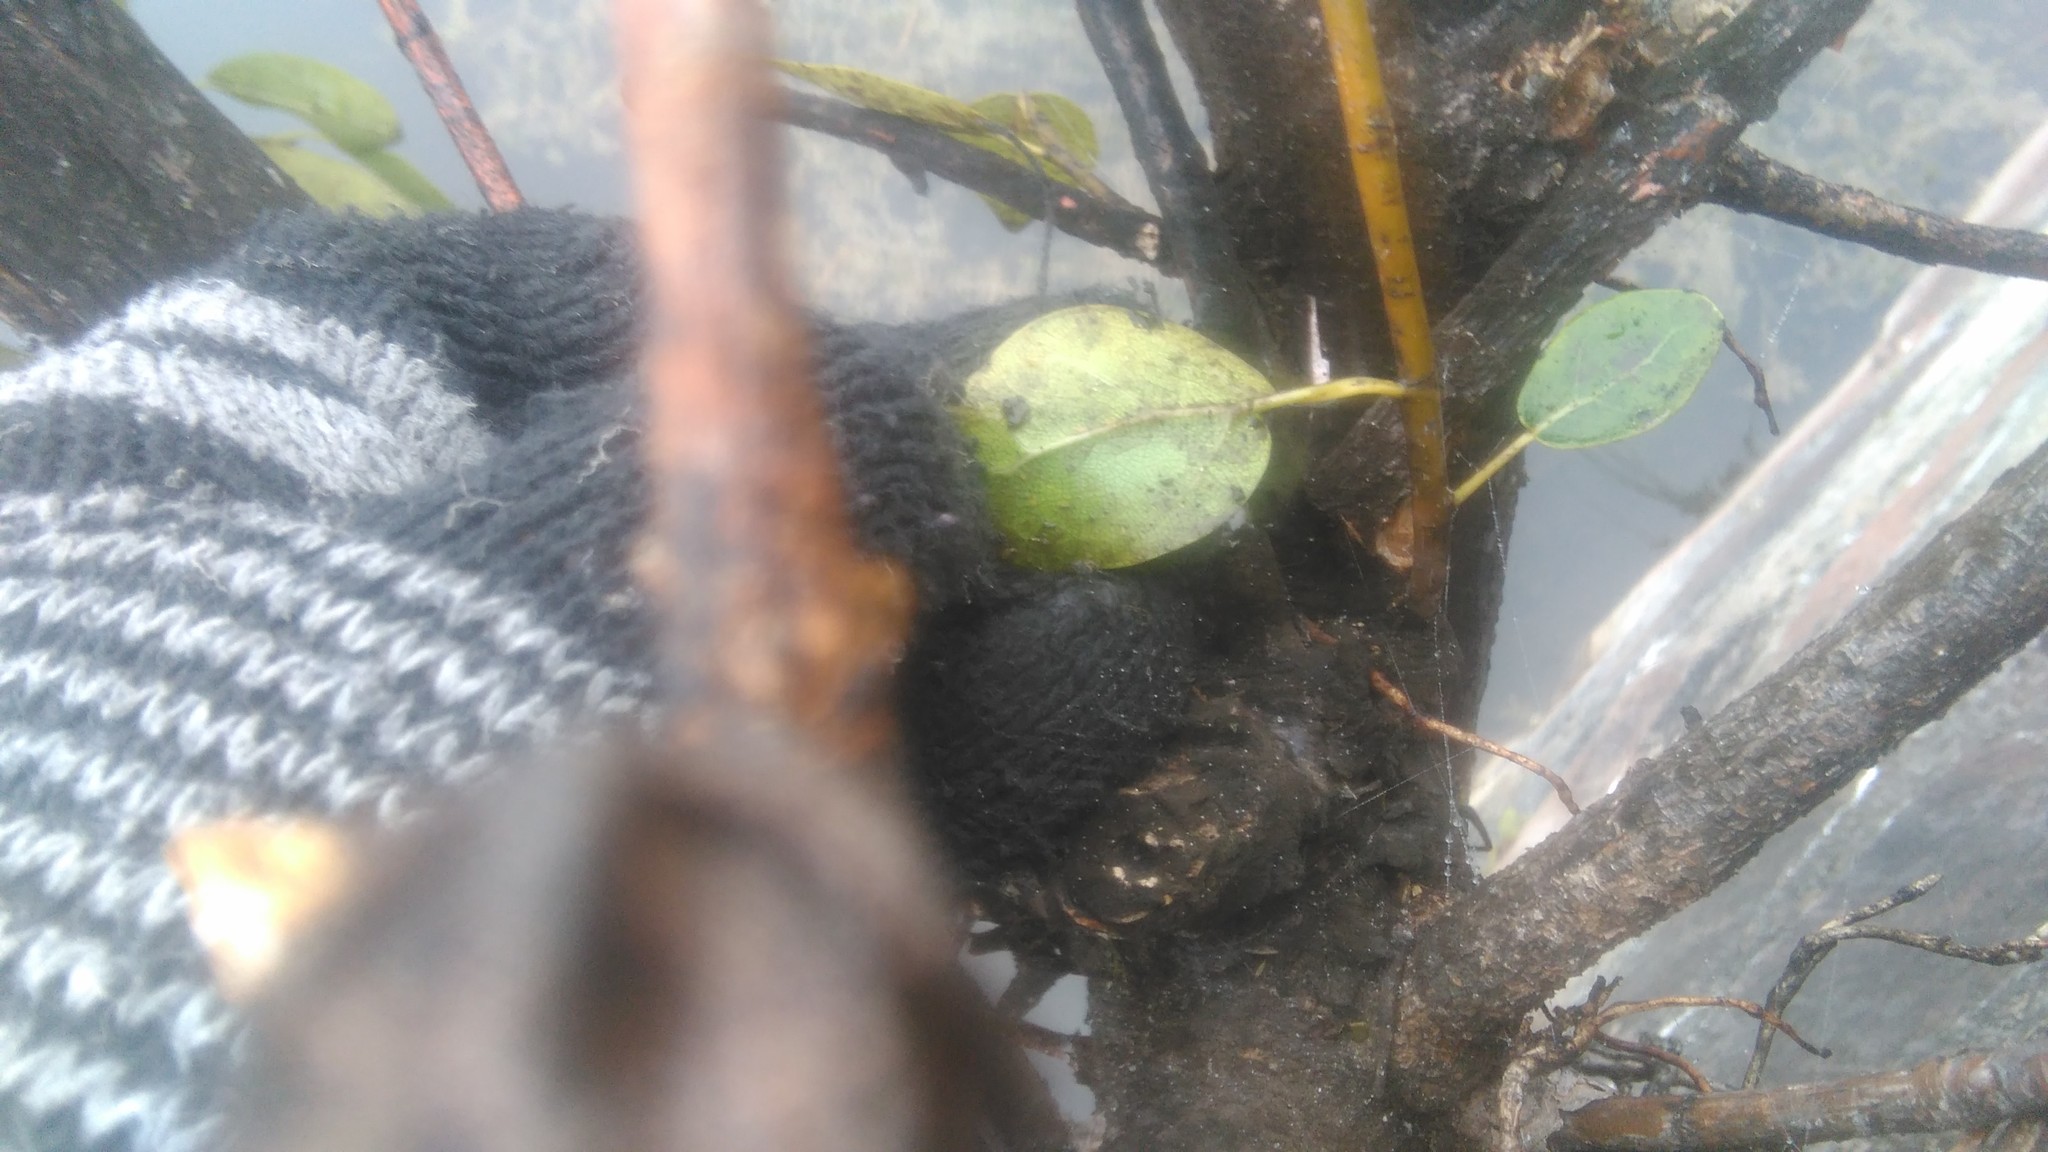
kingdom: Plantae
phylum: Tracheophyta
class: Magnoliopsida
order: Rosales
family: Moraceae
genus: Ficus
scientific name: Ficus luschnathiana
